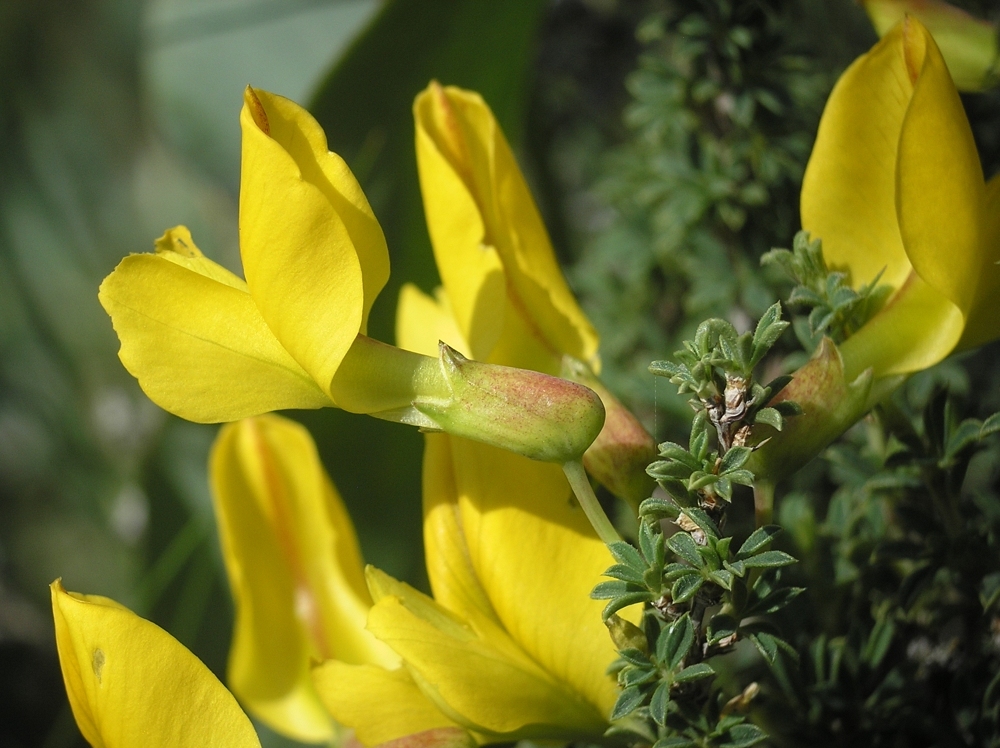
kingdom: Plantae
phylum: Tracheophyta
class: Magnoliopsida
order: Fabales
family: Fabaceae
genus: Caragana
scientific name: Caragana scythica
